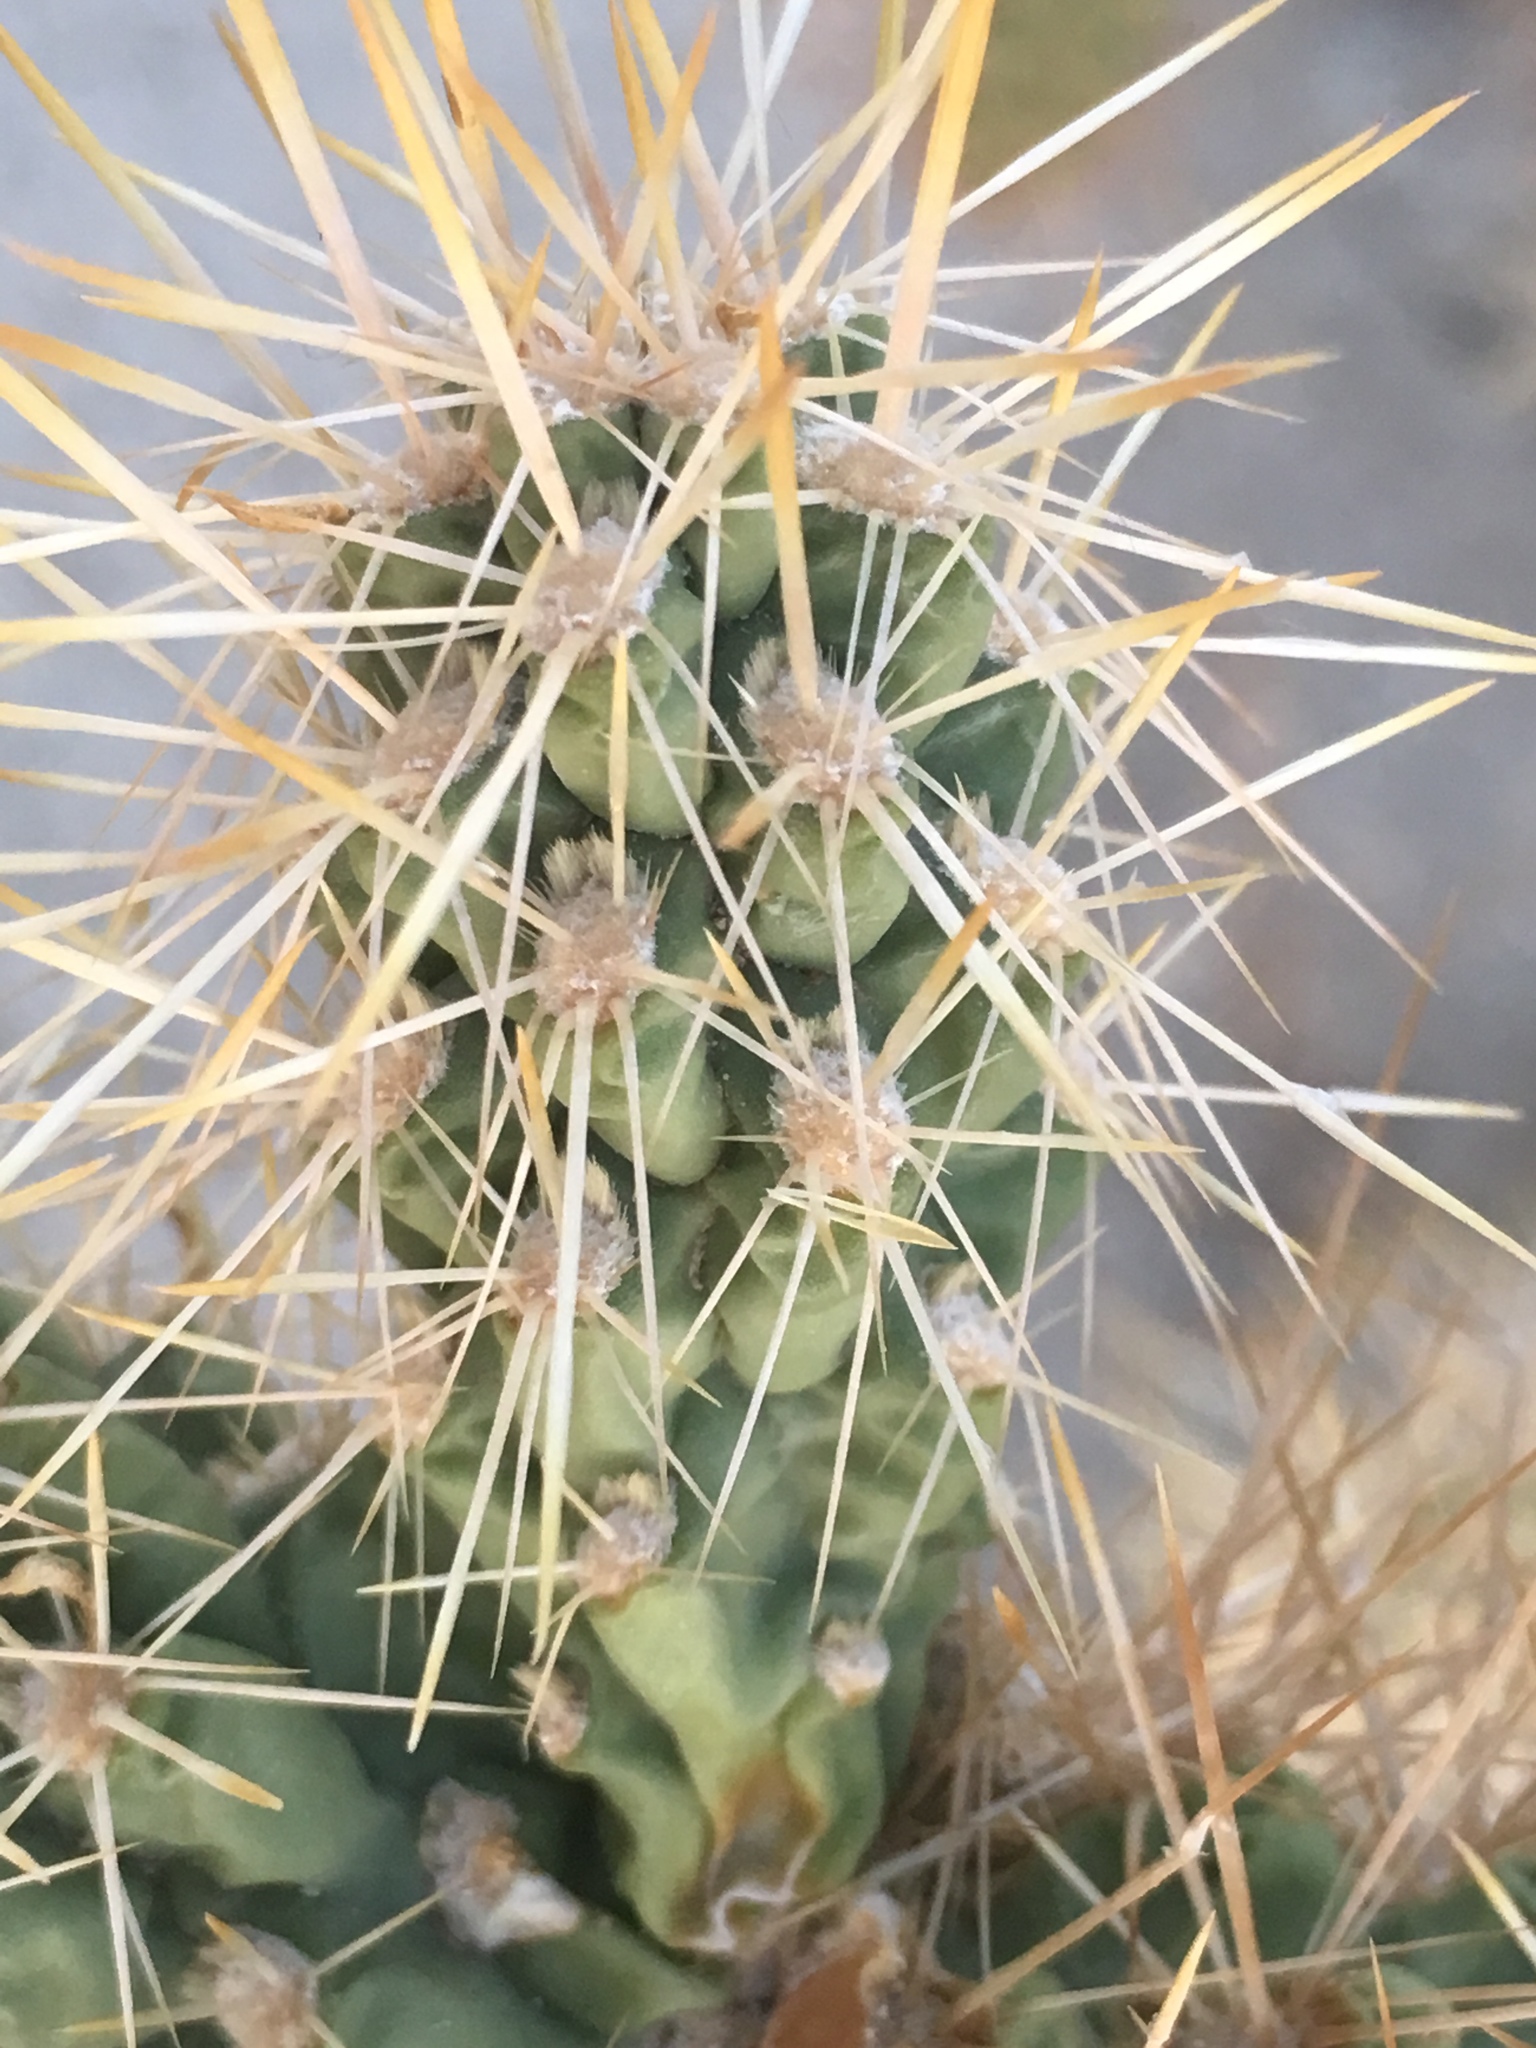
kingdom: Plantae
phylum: Tracheophyta
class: Magnoliopsida
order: Caryophyllales
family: Cactaceae
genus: Cylindropuntia
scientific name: Cylindropuntia echinocarpa
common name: Ground cholla
